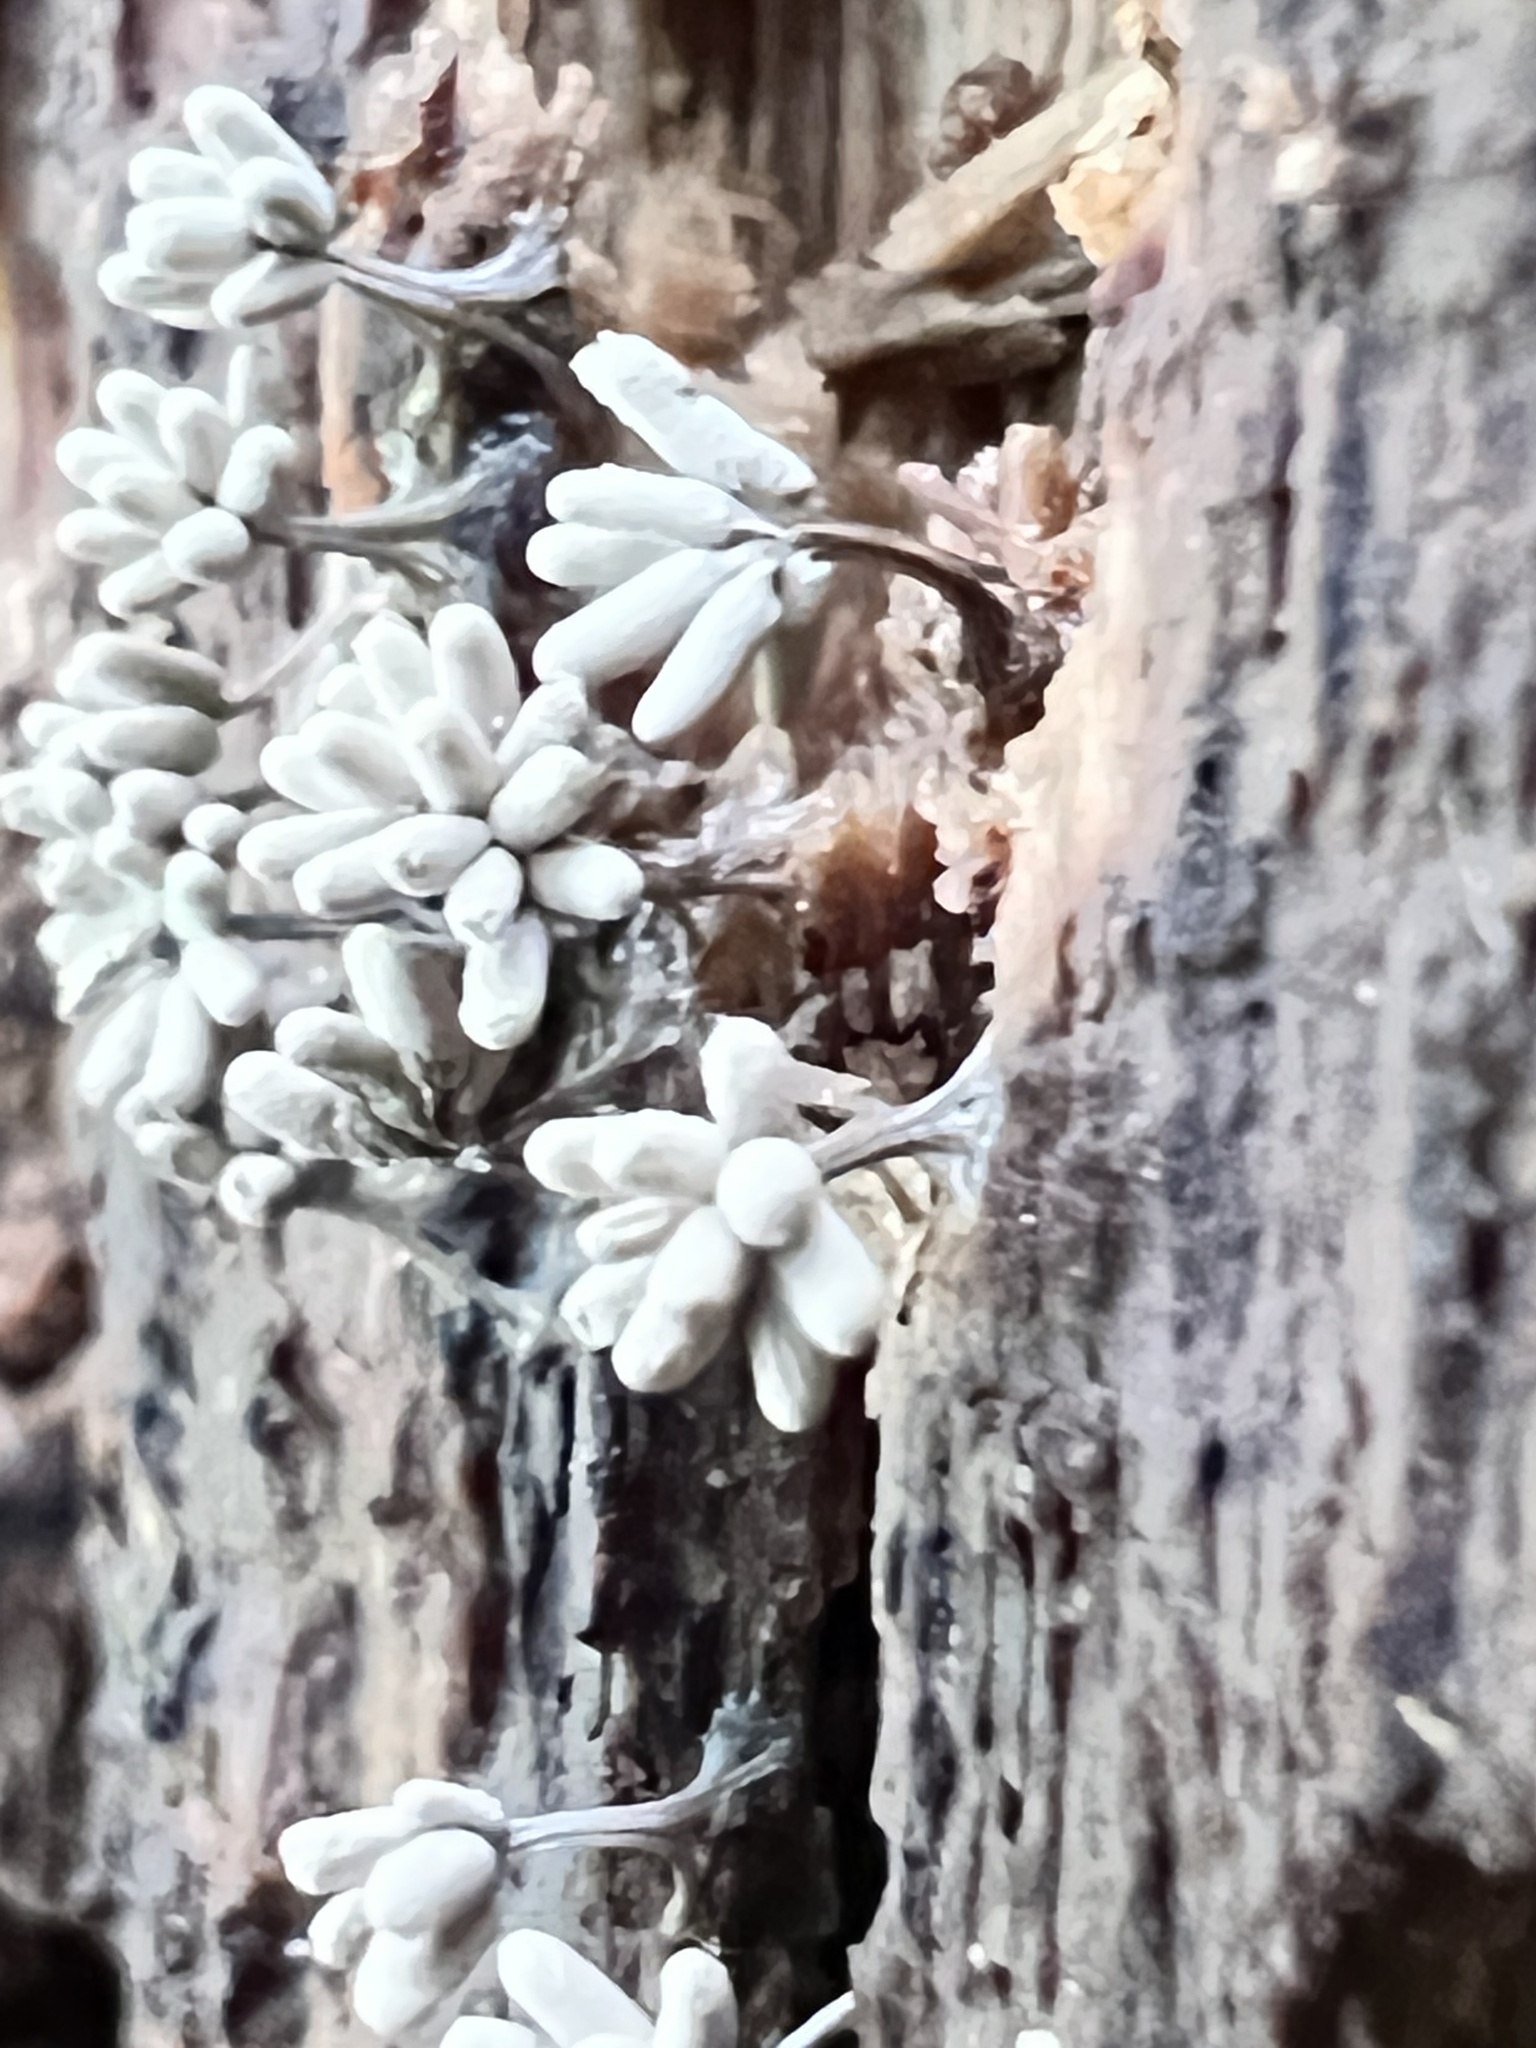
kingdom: Protozoa
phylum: Mycetozoa
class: Myxomycetes
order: Trichiales
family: Arcyriaceae
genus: Arcyria
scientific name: Arcyria cinerea
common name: White carnival candy slime mold
